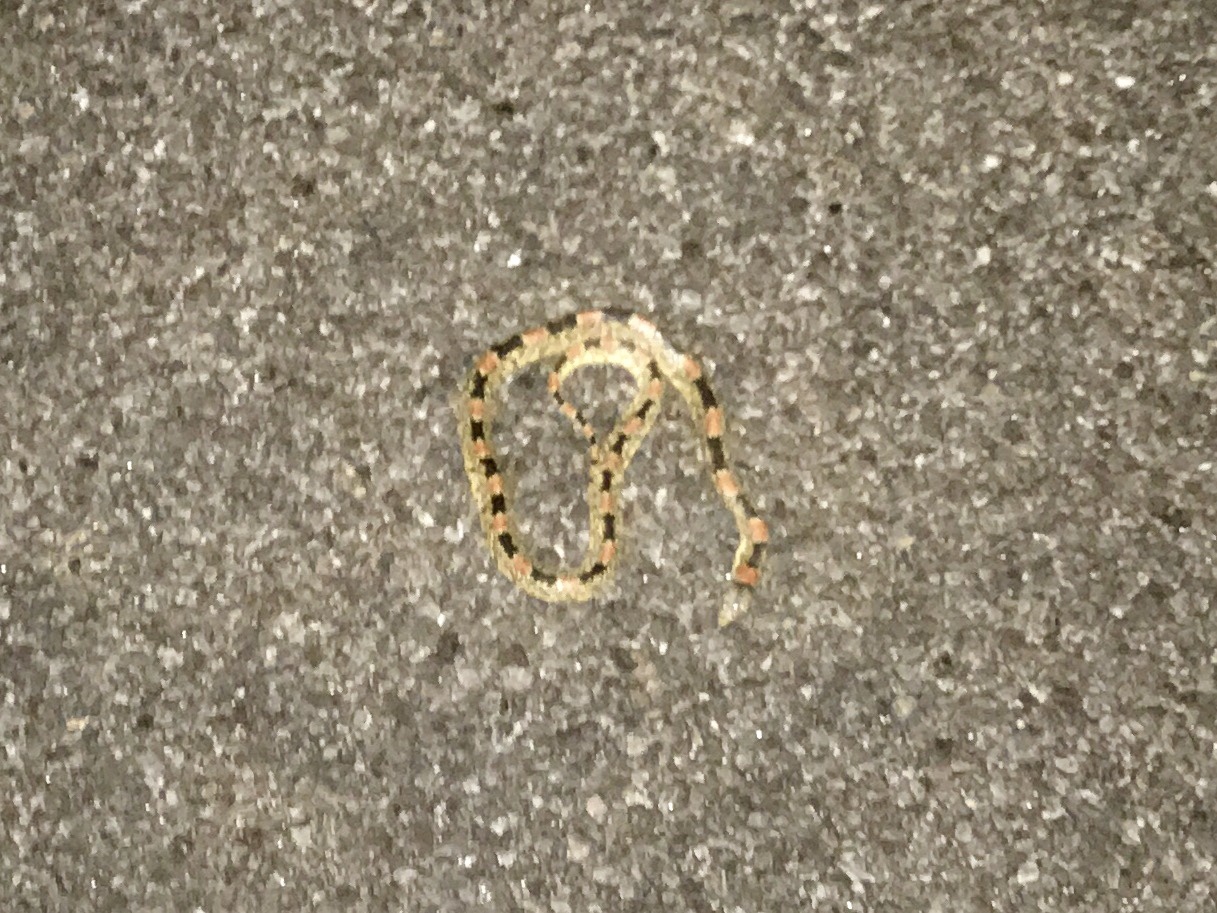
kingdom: Animalia
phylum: Chordata
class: Squamata
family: Colubridae
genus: Rhinocheilus
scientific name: Rhinocheilus lecontei
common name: Longnose snake
